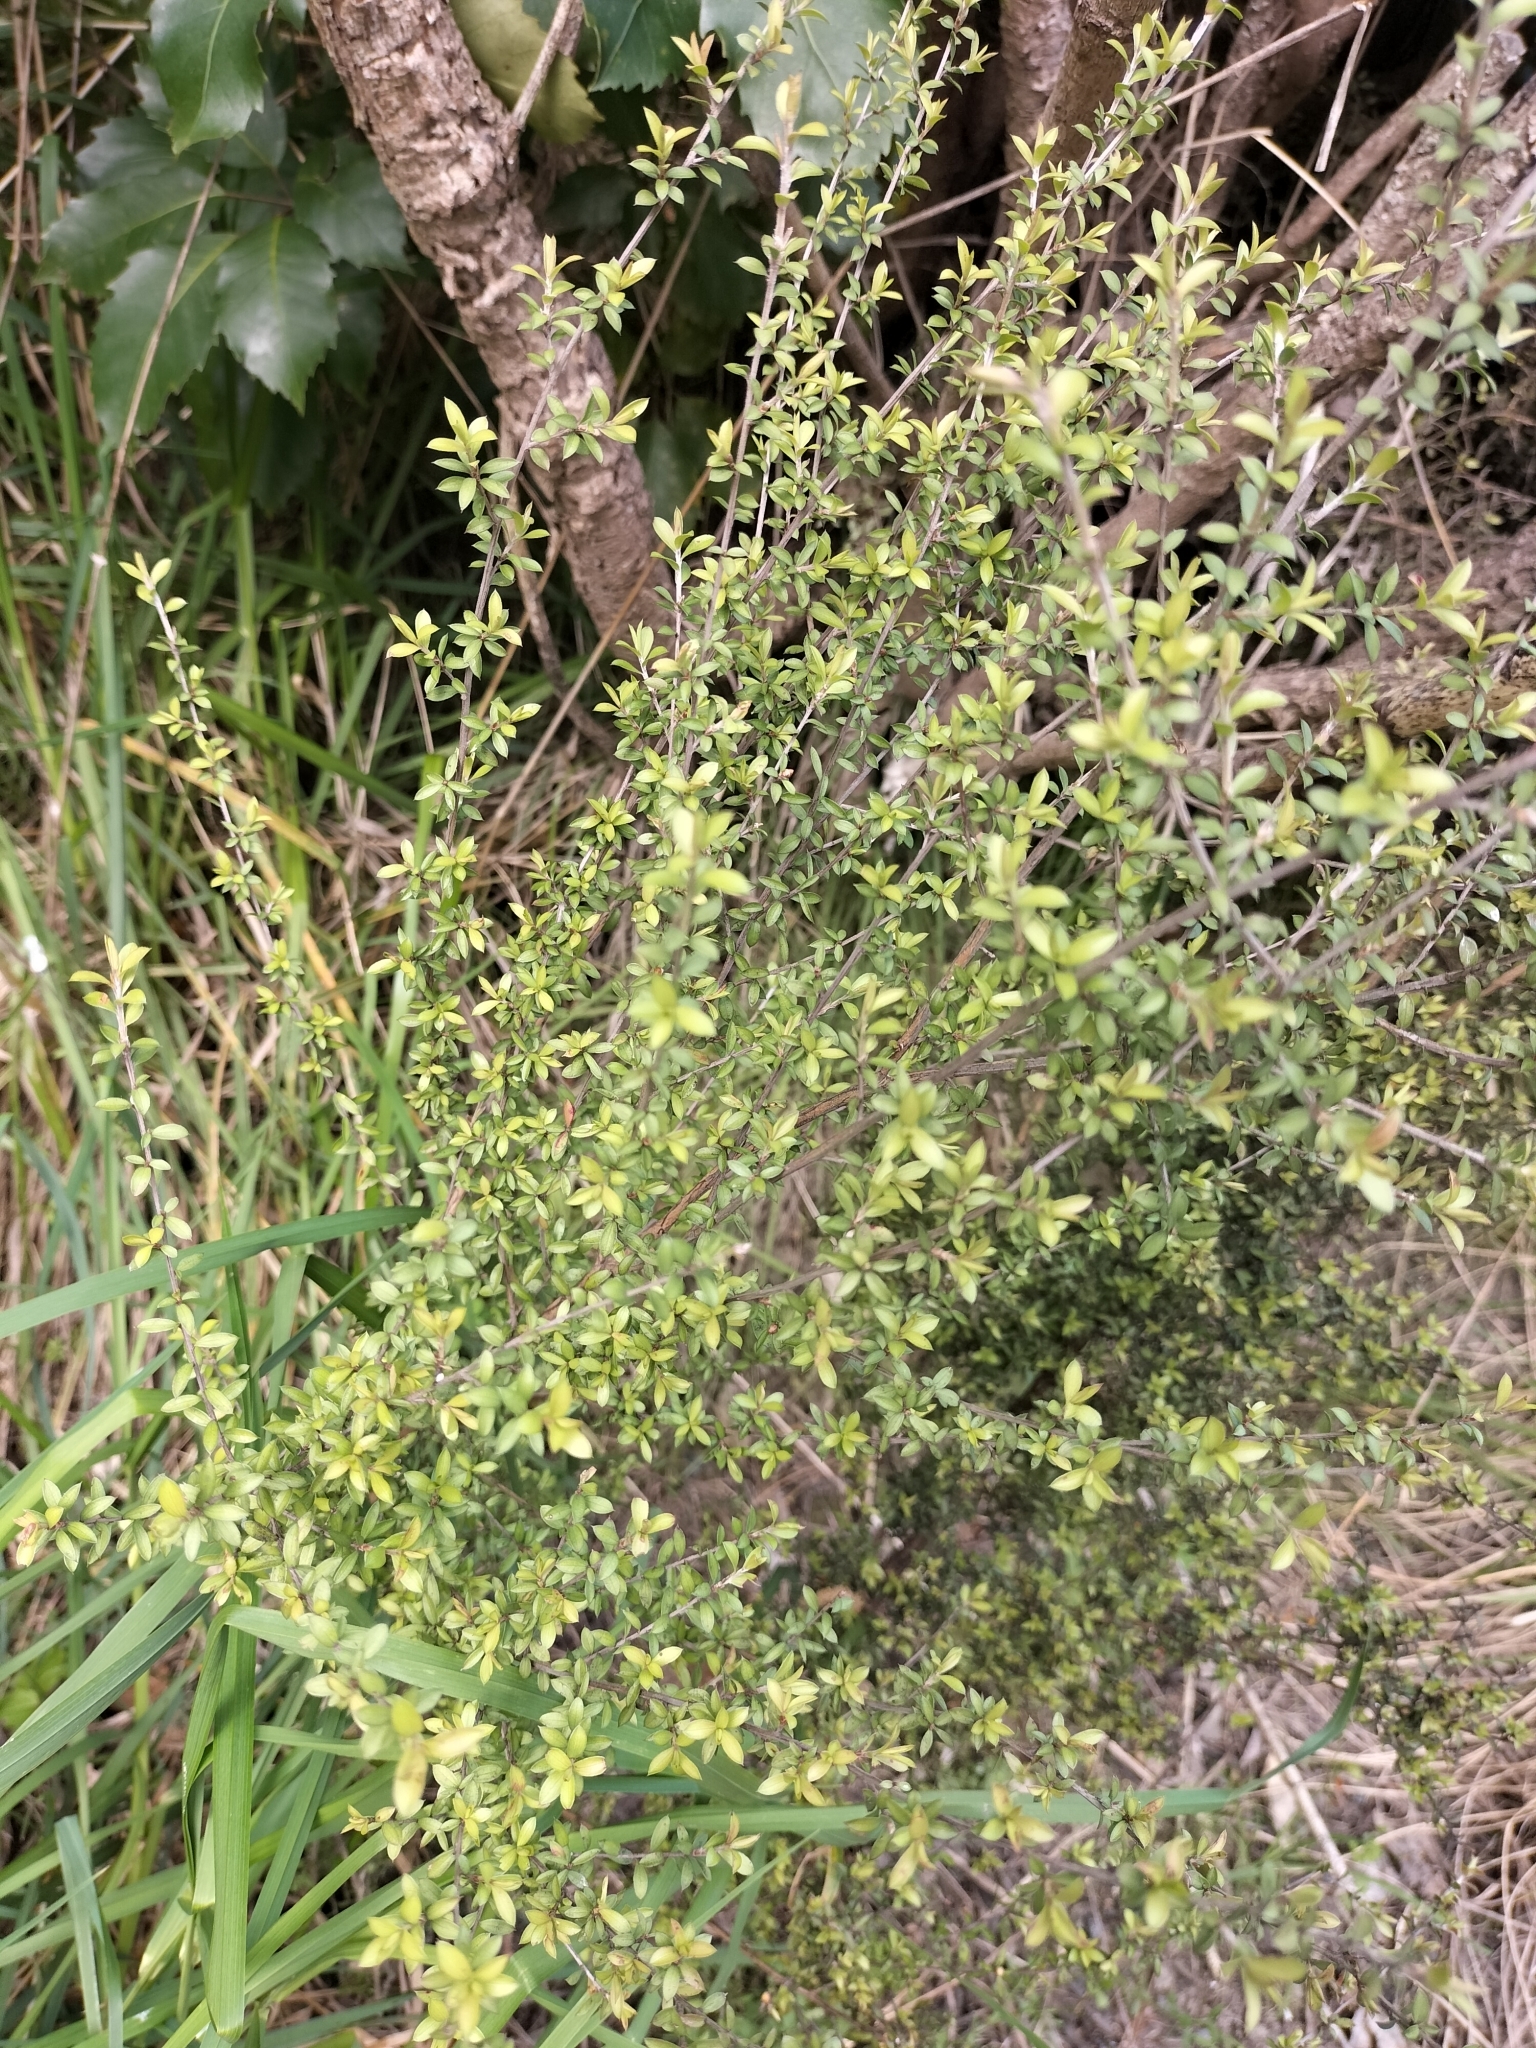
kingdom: Plantae
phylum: Tracheophyta
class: Magnoliopsida
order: Myrtales
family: Myrtaceae
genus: Leptospermum
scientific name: Leptospermum scoparium
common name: Broom tea-tree
